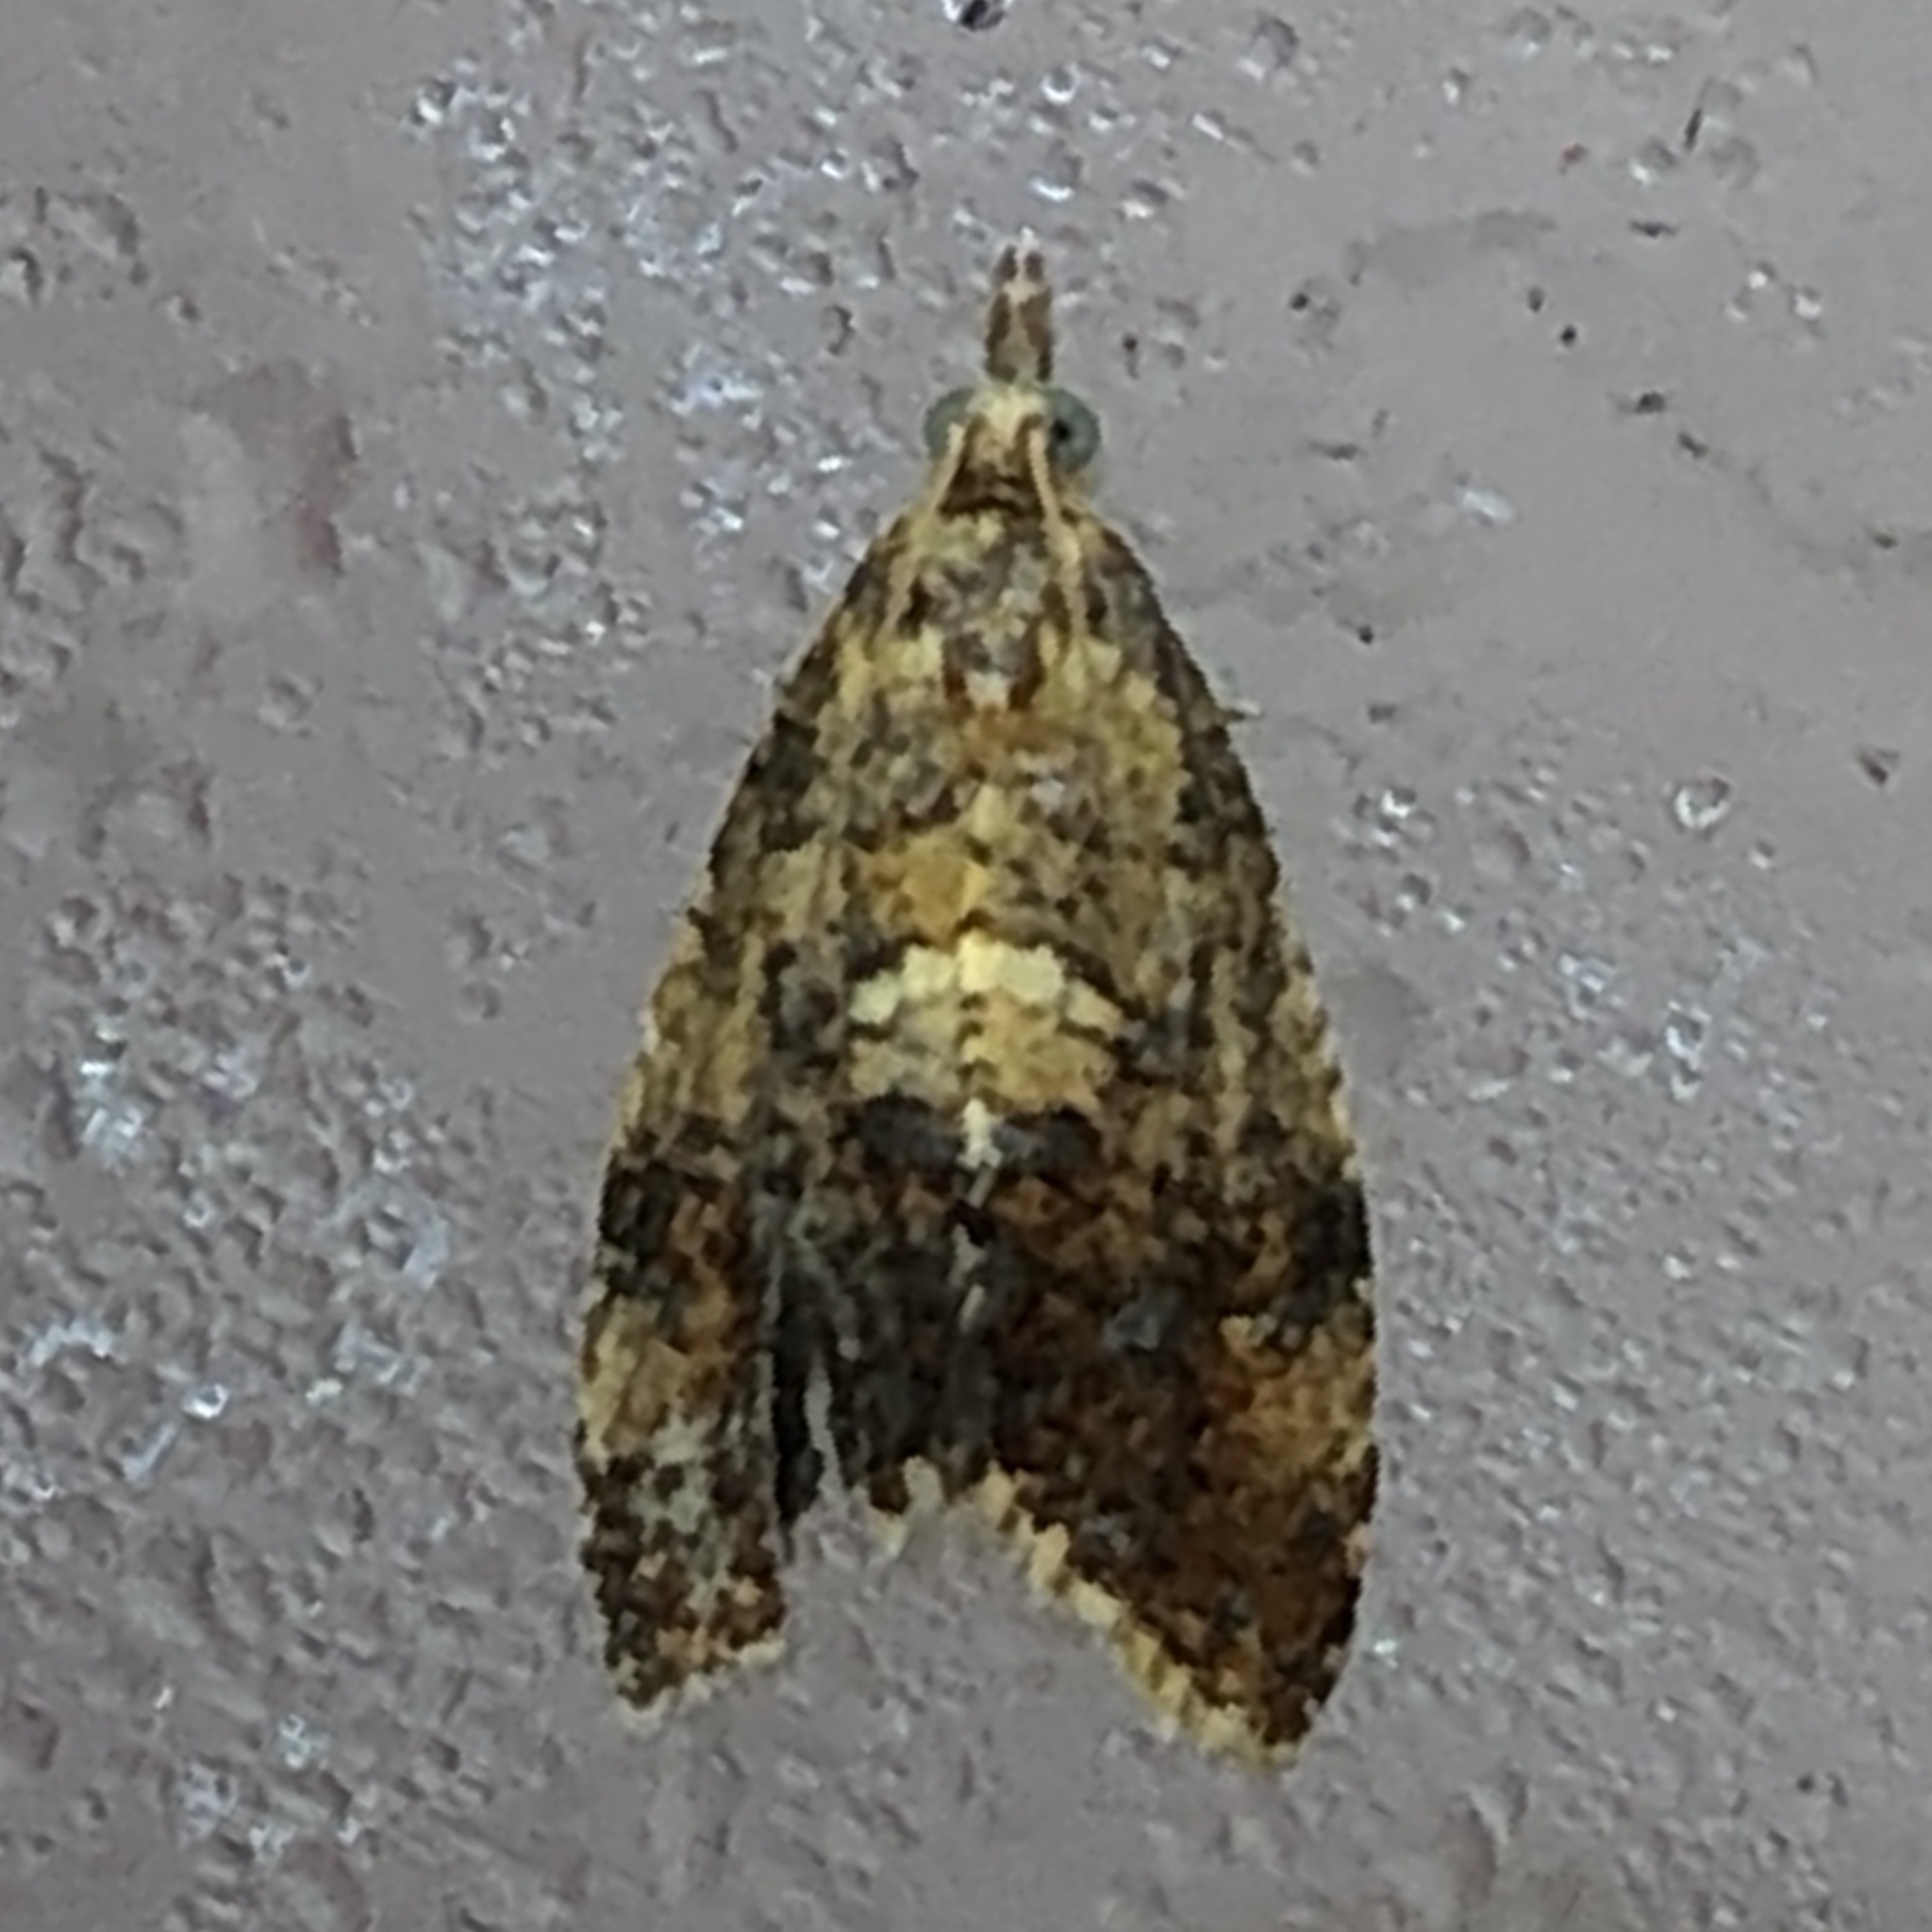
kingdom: Animalia
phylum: Arthropoda
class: Insecta
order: Lepidoptera
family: Tortricidae
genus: Pseudargyrotoza
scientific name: Pseudargyrotoza conwagana
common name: Yellow-spot twist
